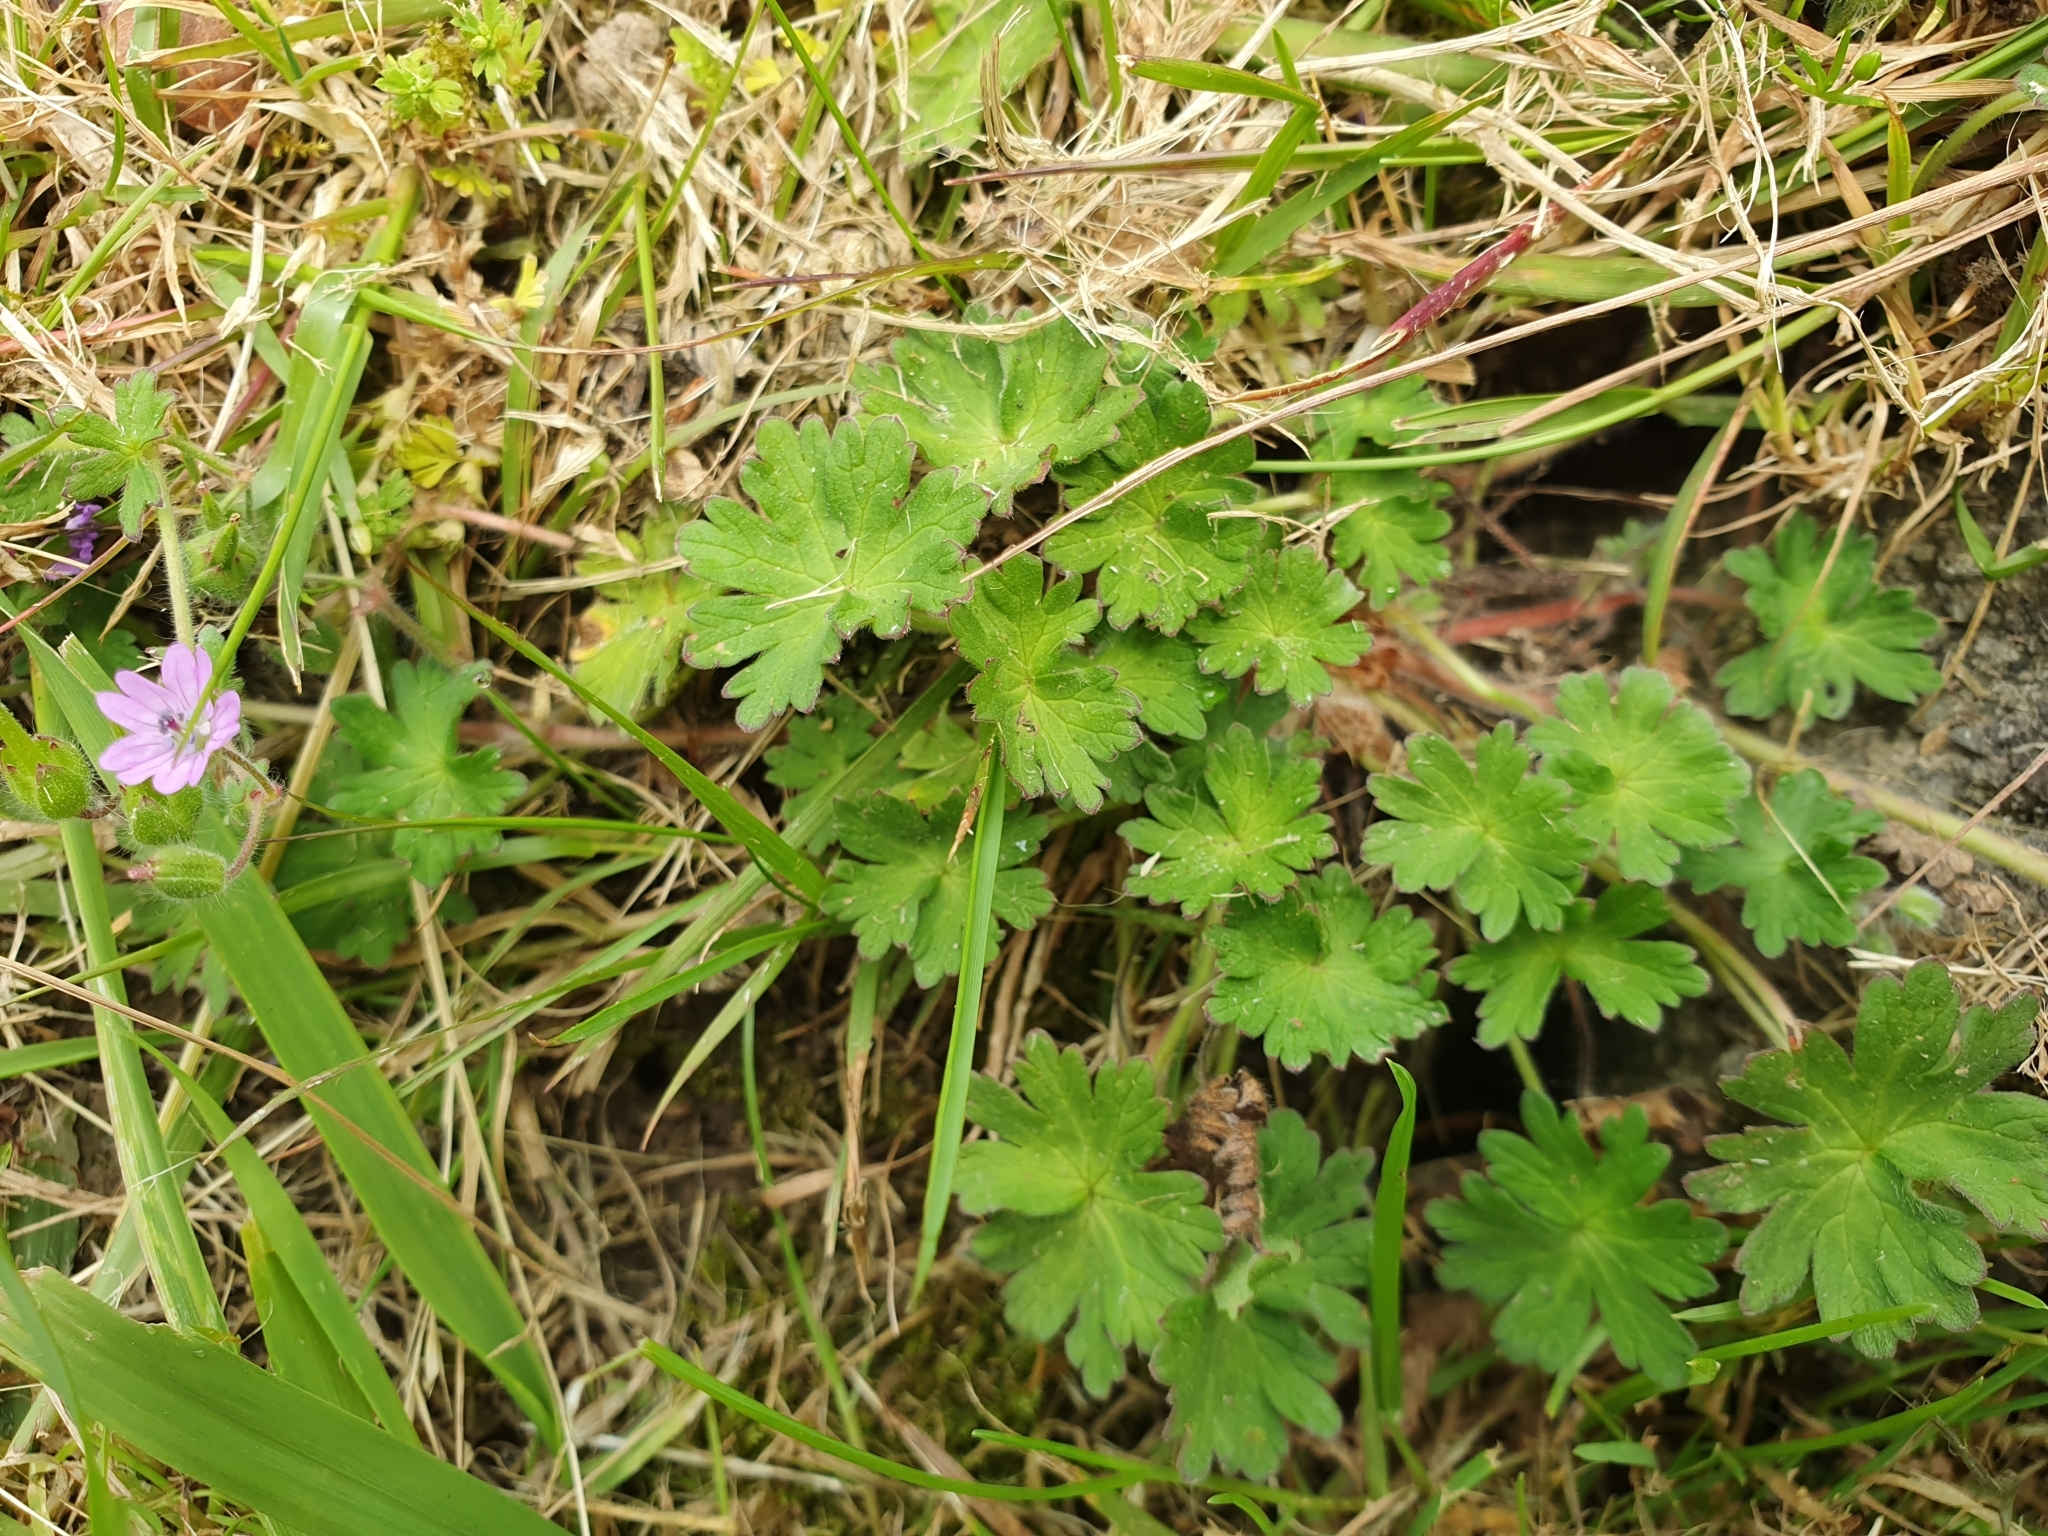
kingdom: Plantae
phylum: Tracheophyta
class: Magnoliopsida
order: Geraniales
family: Geraniaceae
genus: Geranium
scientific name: Geranium molle
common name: Dove's-foot crane's-bill
